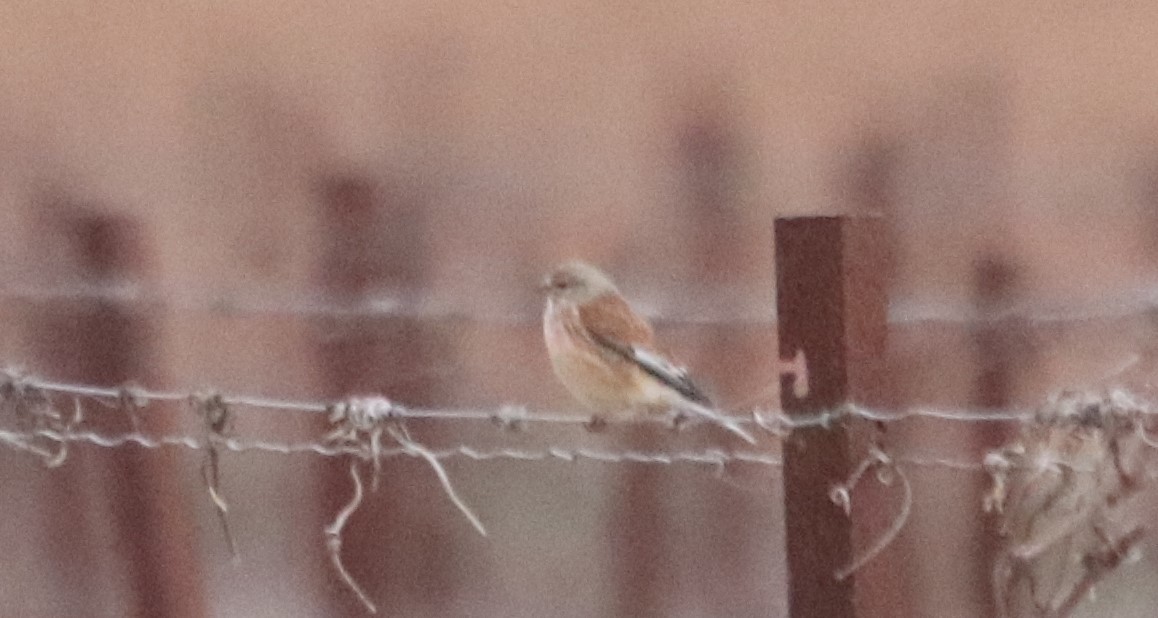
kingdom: Animalia
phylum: Chordata
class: Aves
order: Passeriformes
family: Fringillidae
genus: Linaria
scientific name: Linaria cannabina
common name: Common linnet
